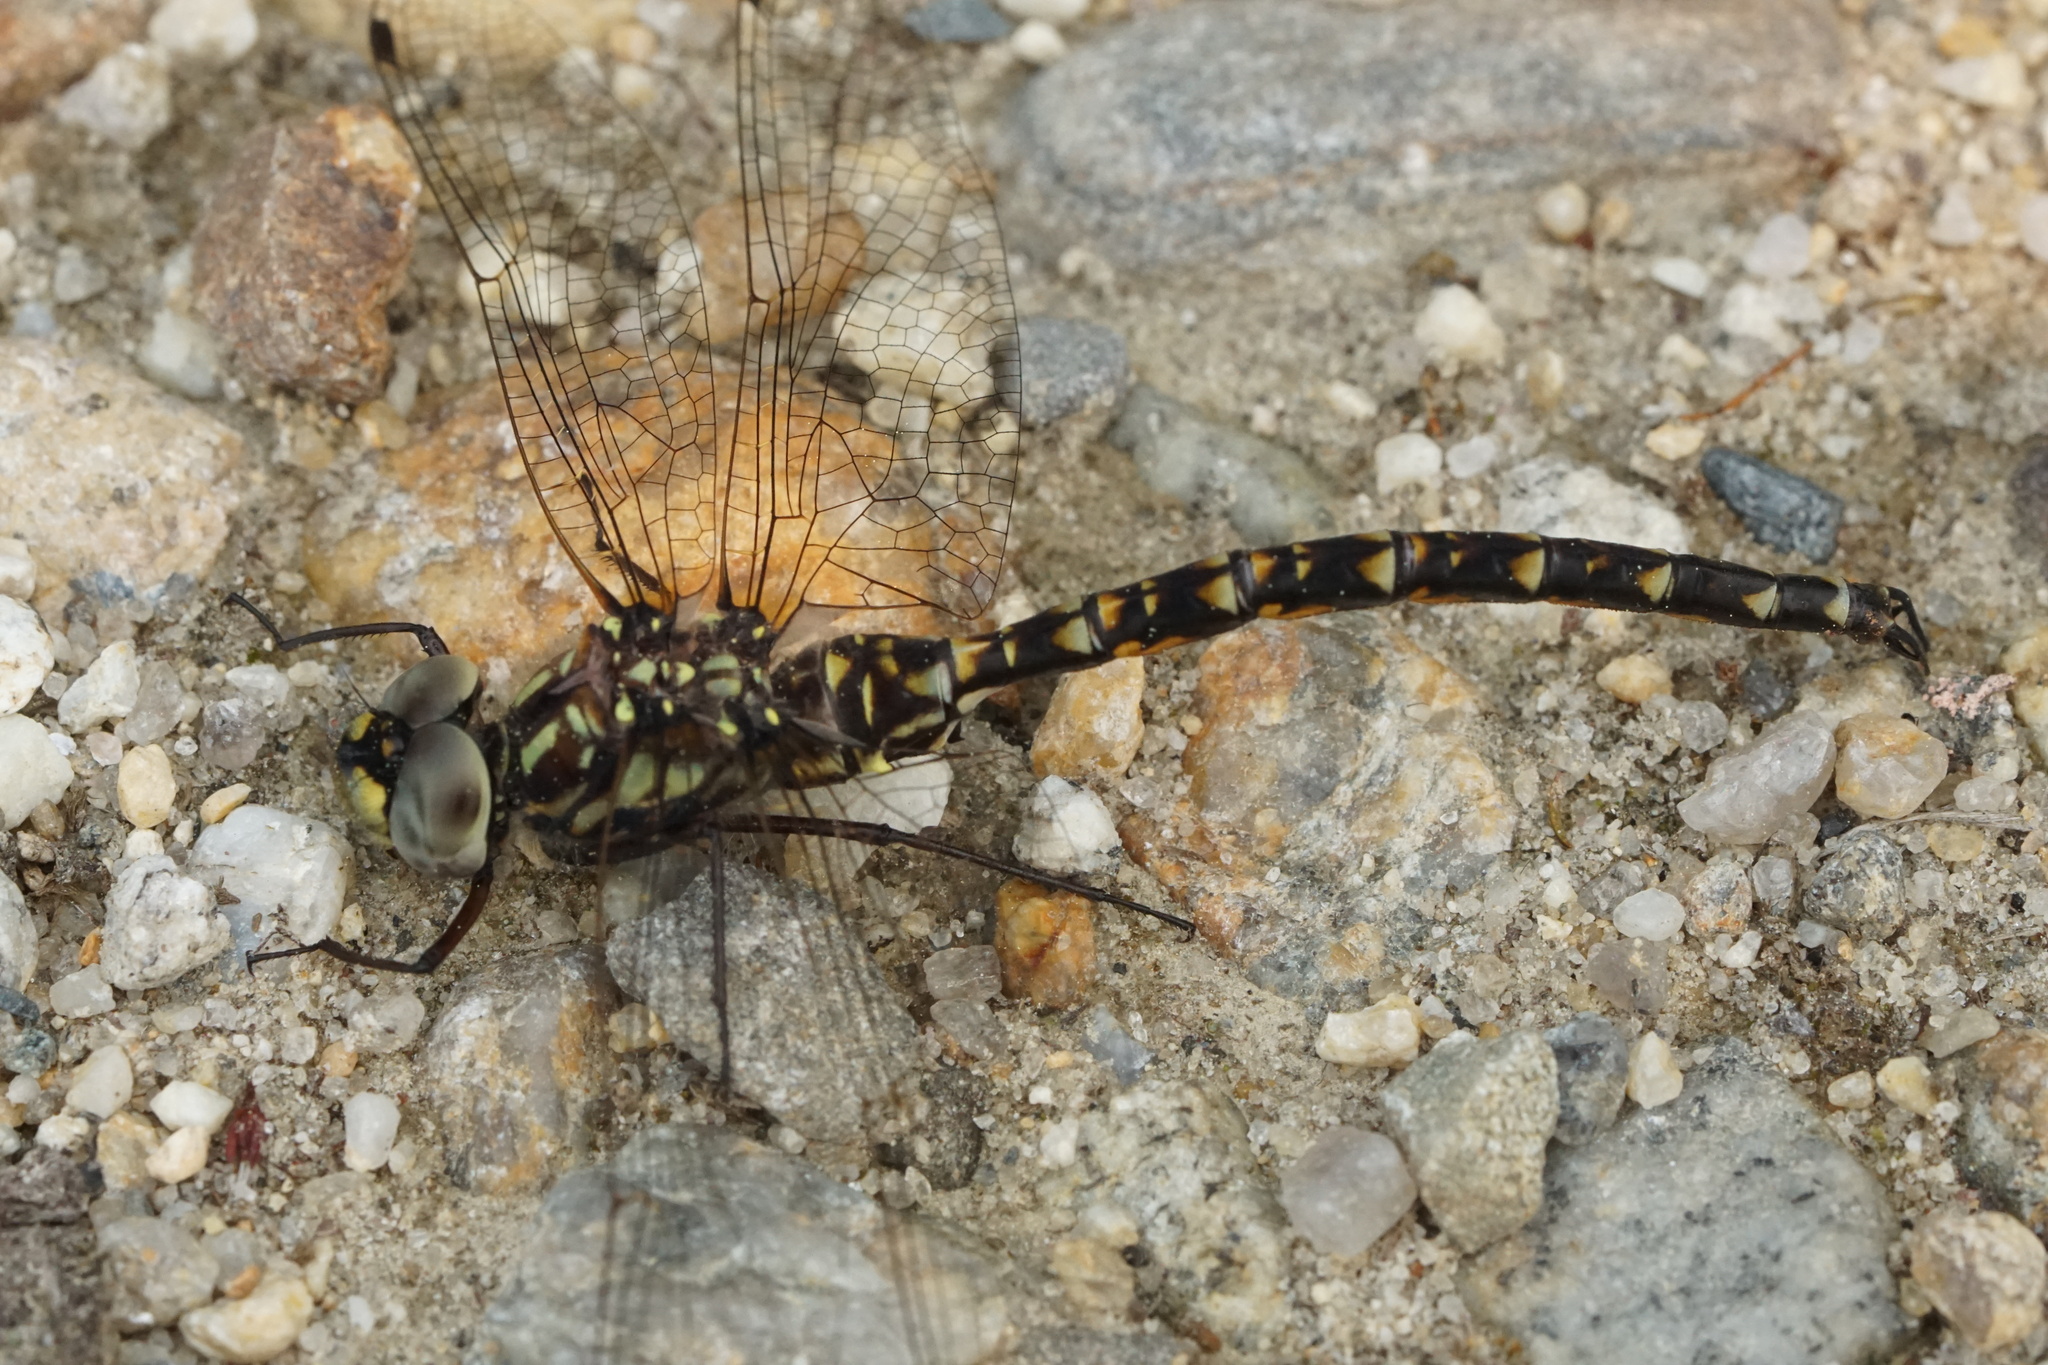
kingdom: Animalia
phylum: Arthropoda
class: Insecta
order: Odonata
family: Aeshnidae
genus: Gomphaeschna
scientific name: Gomphaeschna furcillata
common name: Harlequin darner
